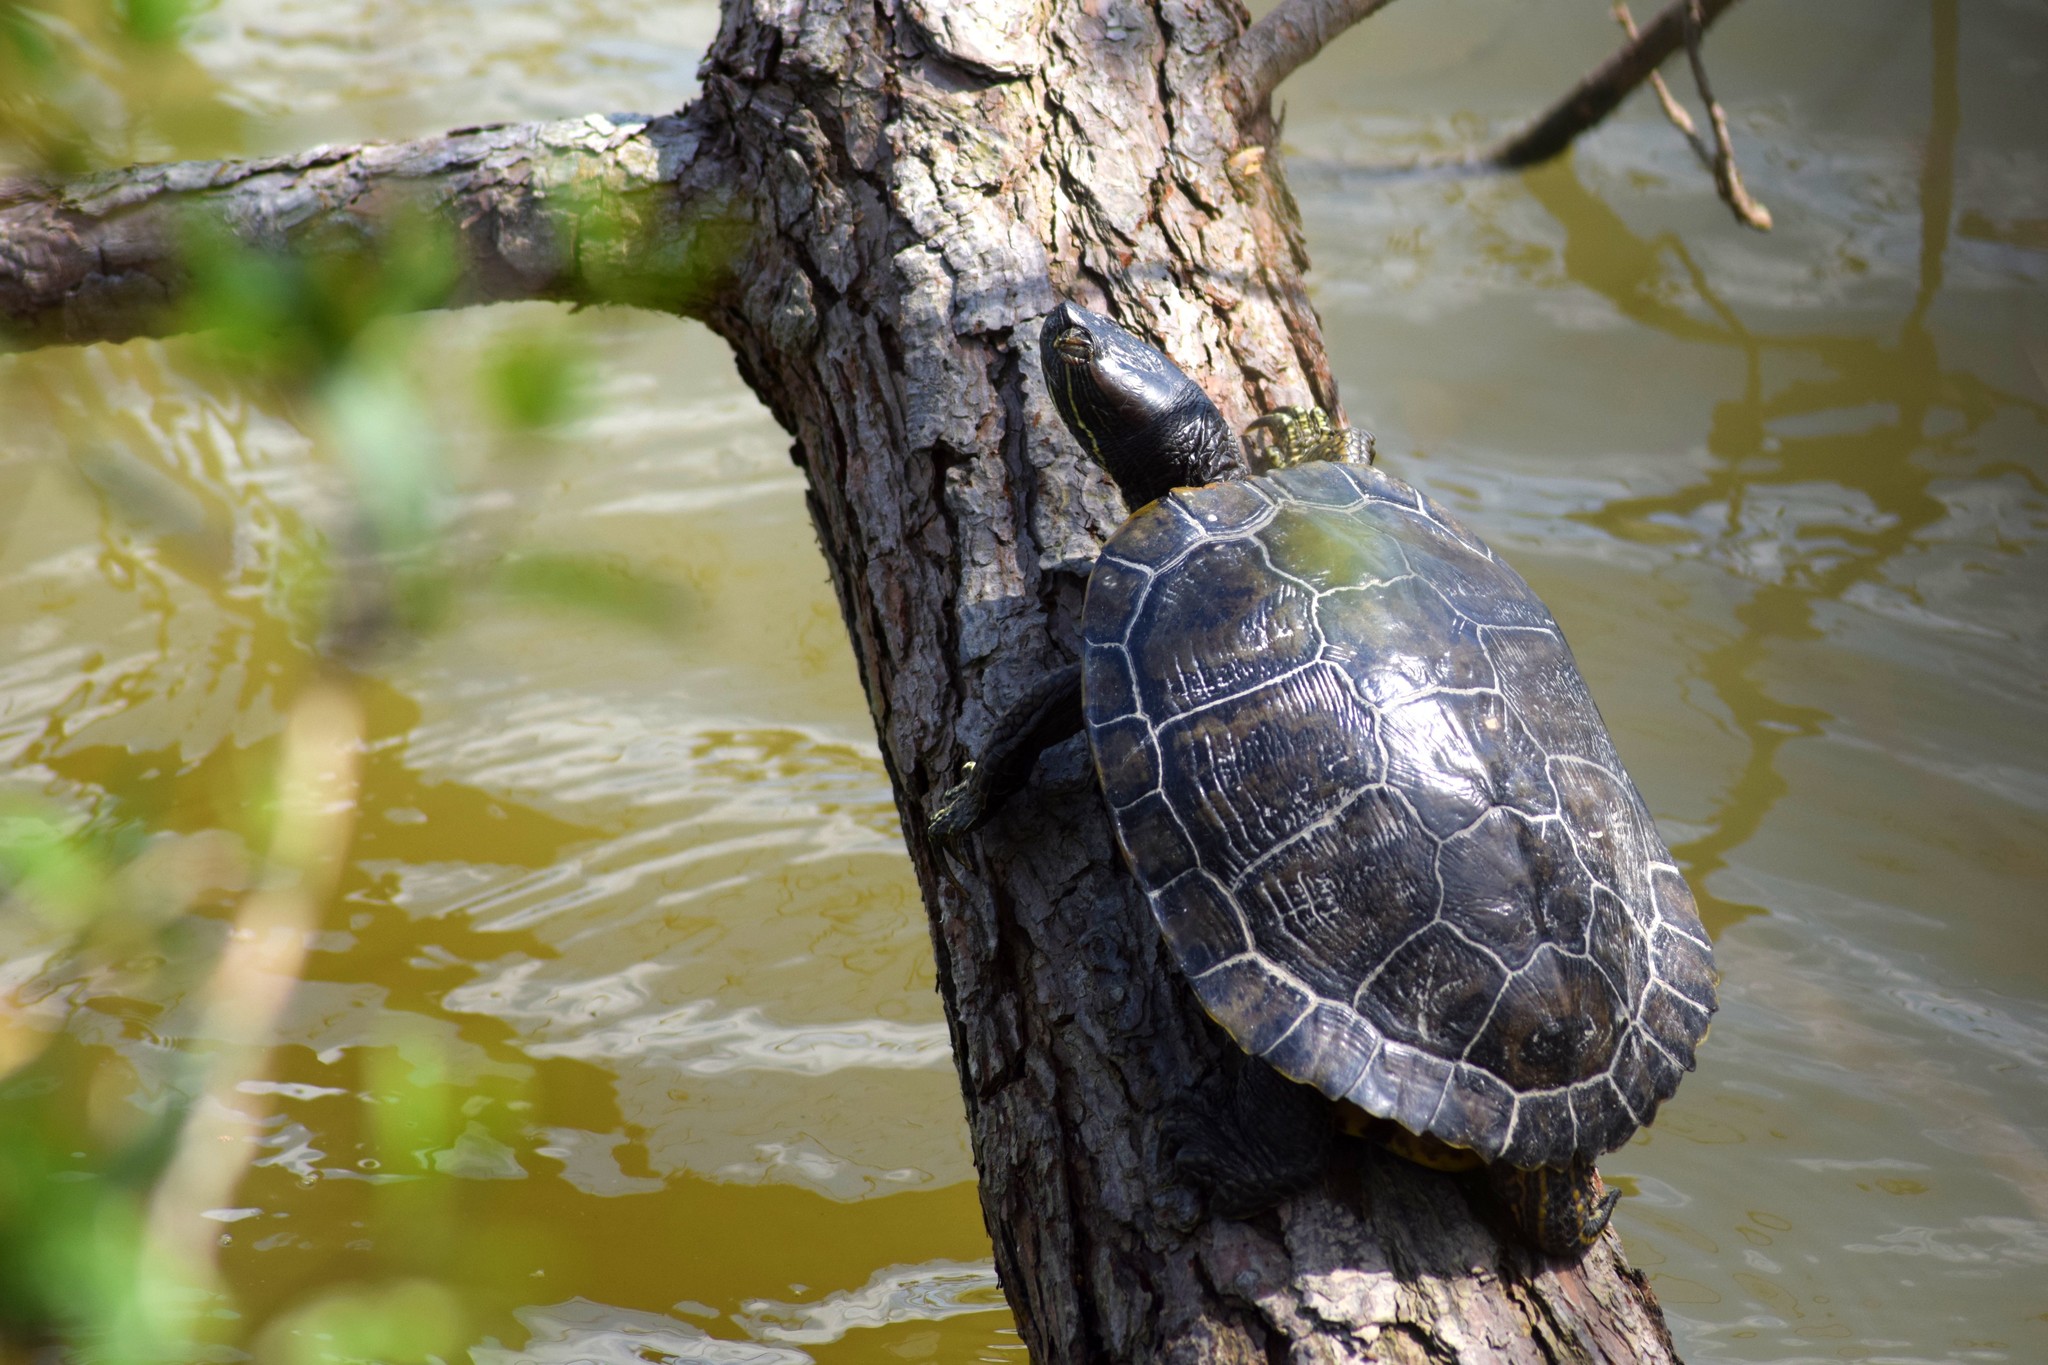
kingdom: Animalia
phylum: Chordata
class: Testudines
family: Emydidae
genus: Trachemys
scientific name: Trachemys scripta
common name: Slider
